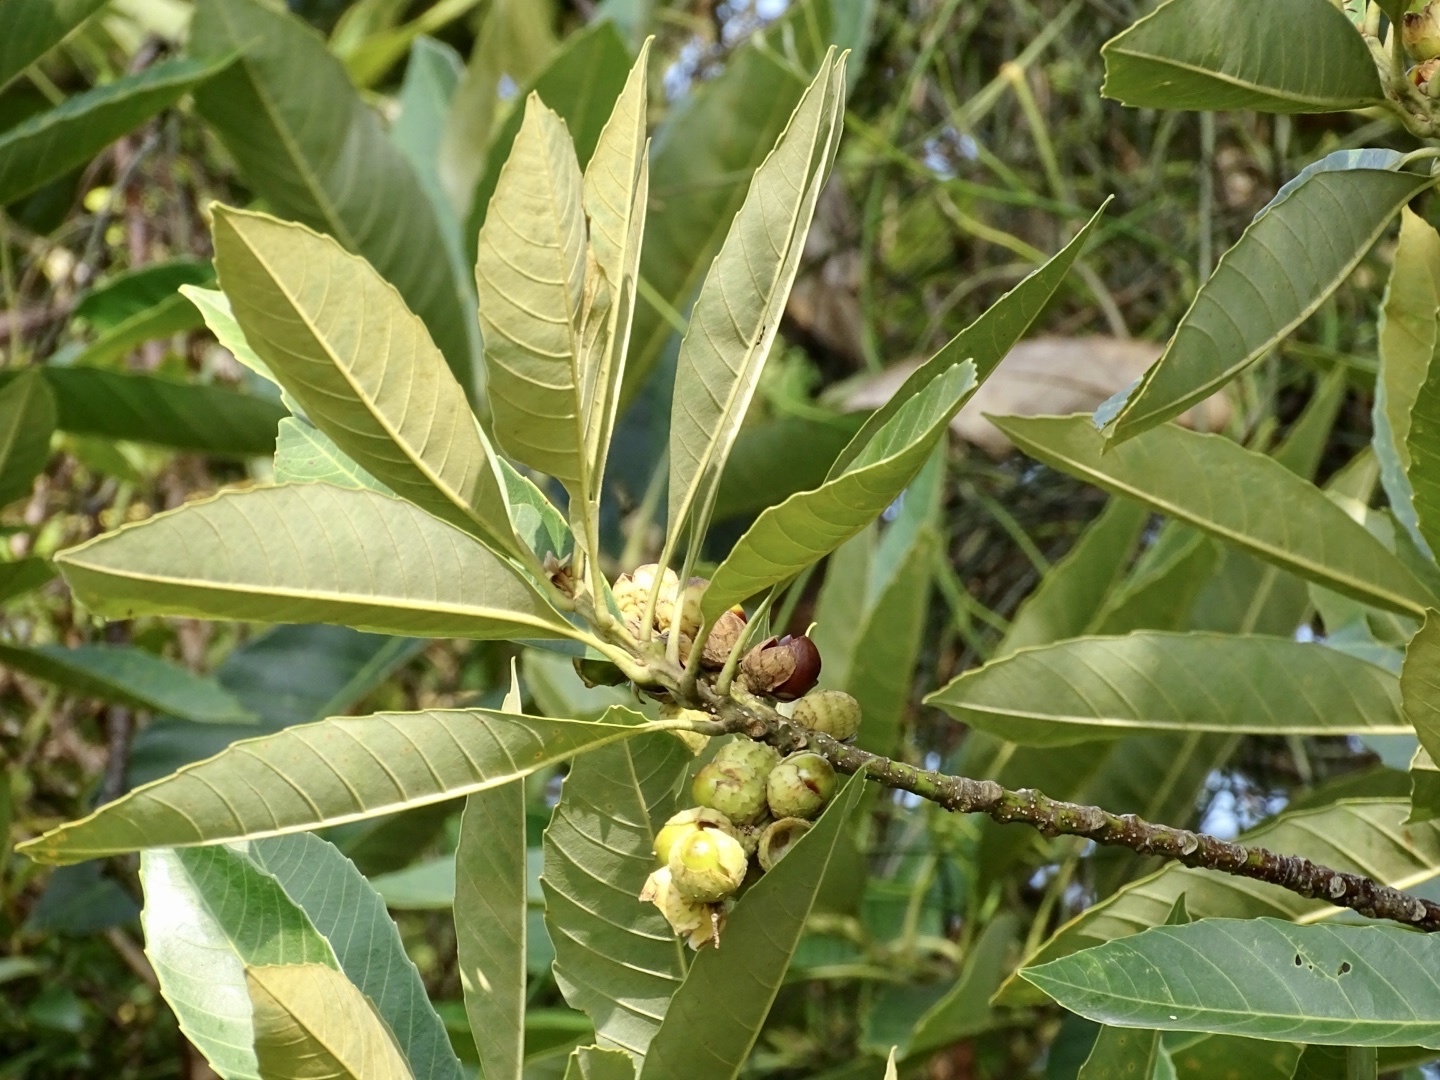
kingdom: Plantae
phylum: Tracheophyta
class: Magnoliopsida
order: Fagales
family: Fagaceae
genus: Castanopsis
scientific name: Castanopsis fissa
